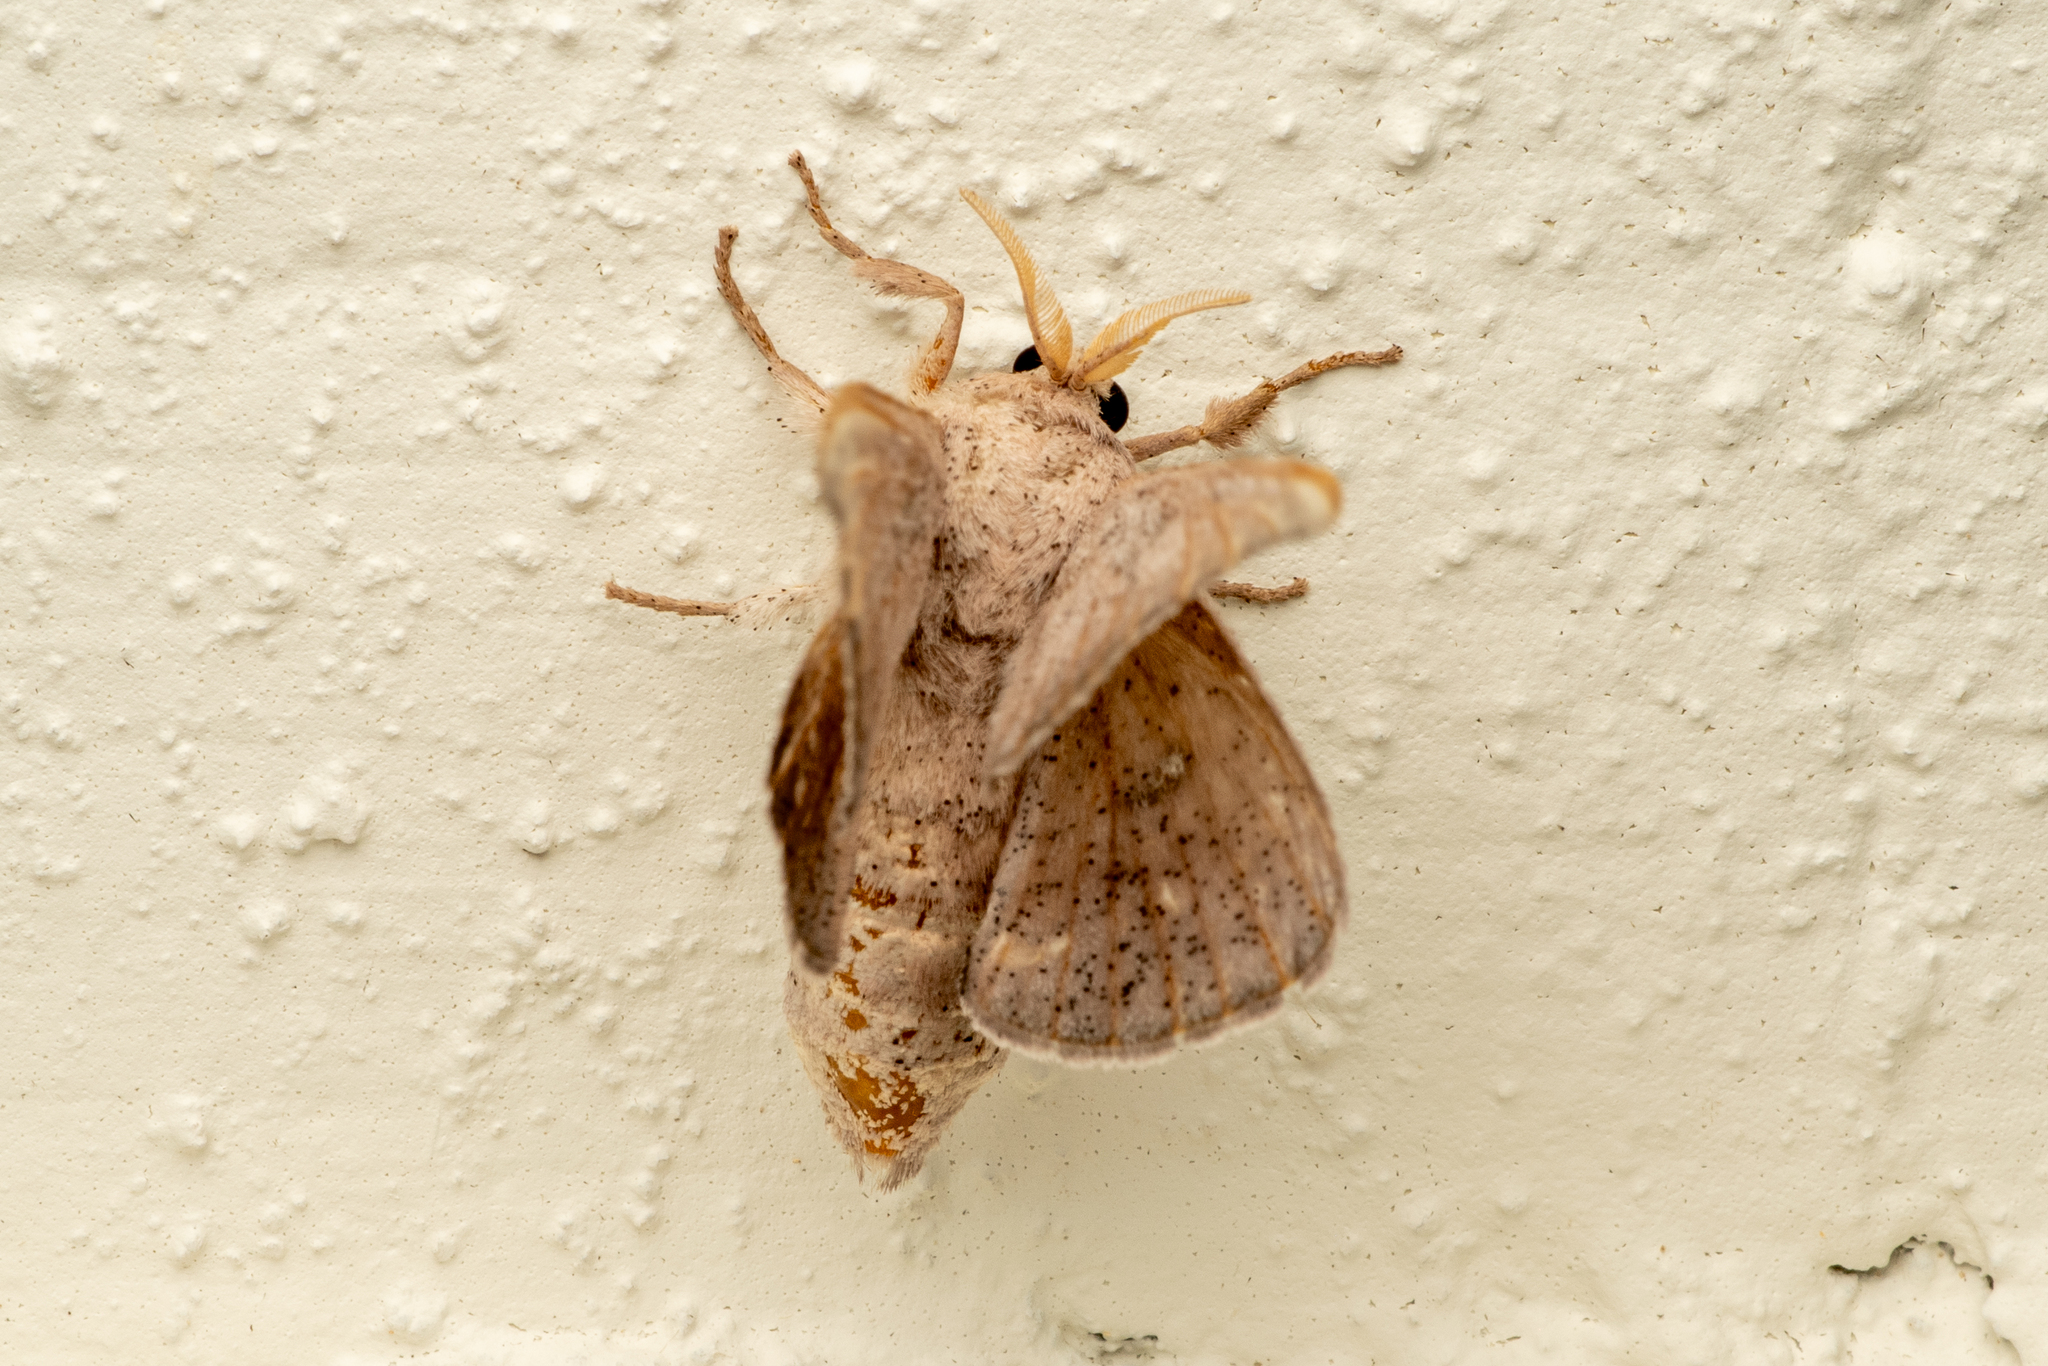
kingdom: Animalia
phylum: Arthropoda
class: Insecta
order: Lepidoptera
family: Mimallonidae
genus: Gonogramma
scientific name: Gonogramma
